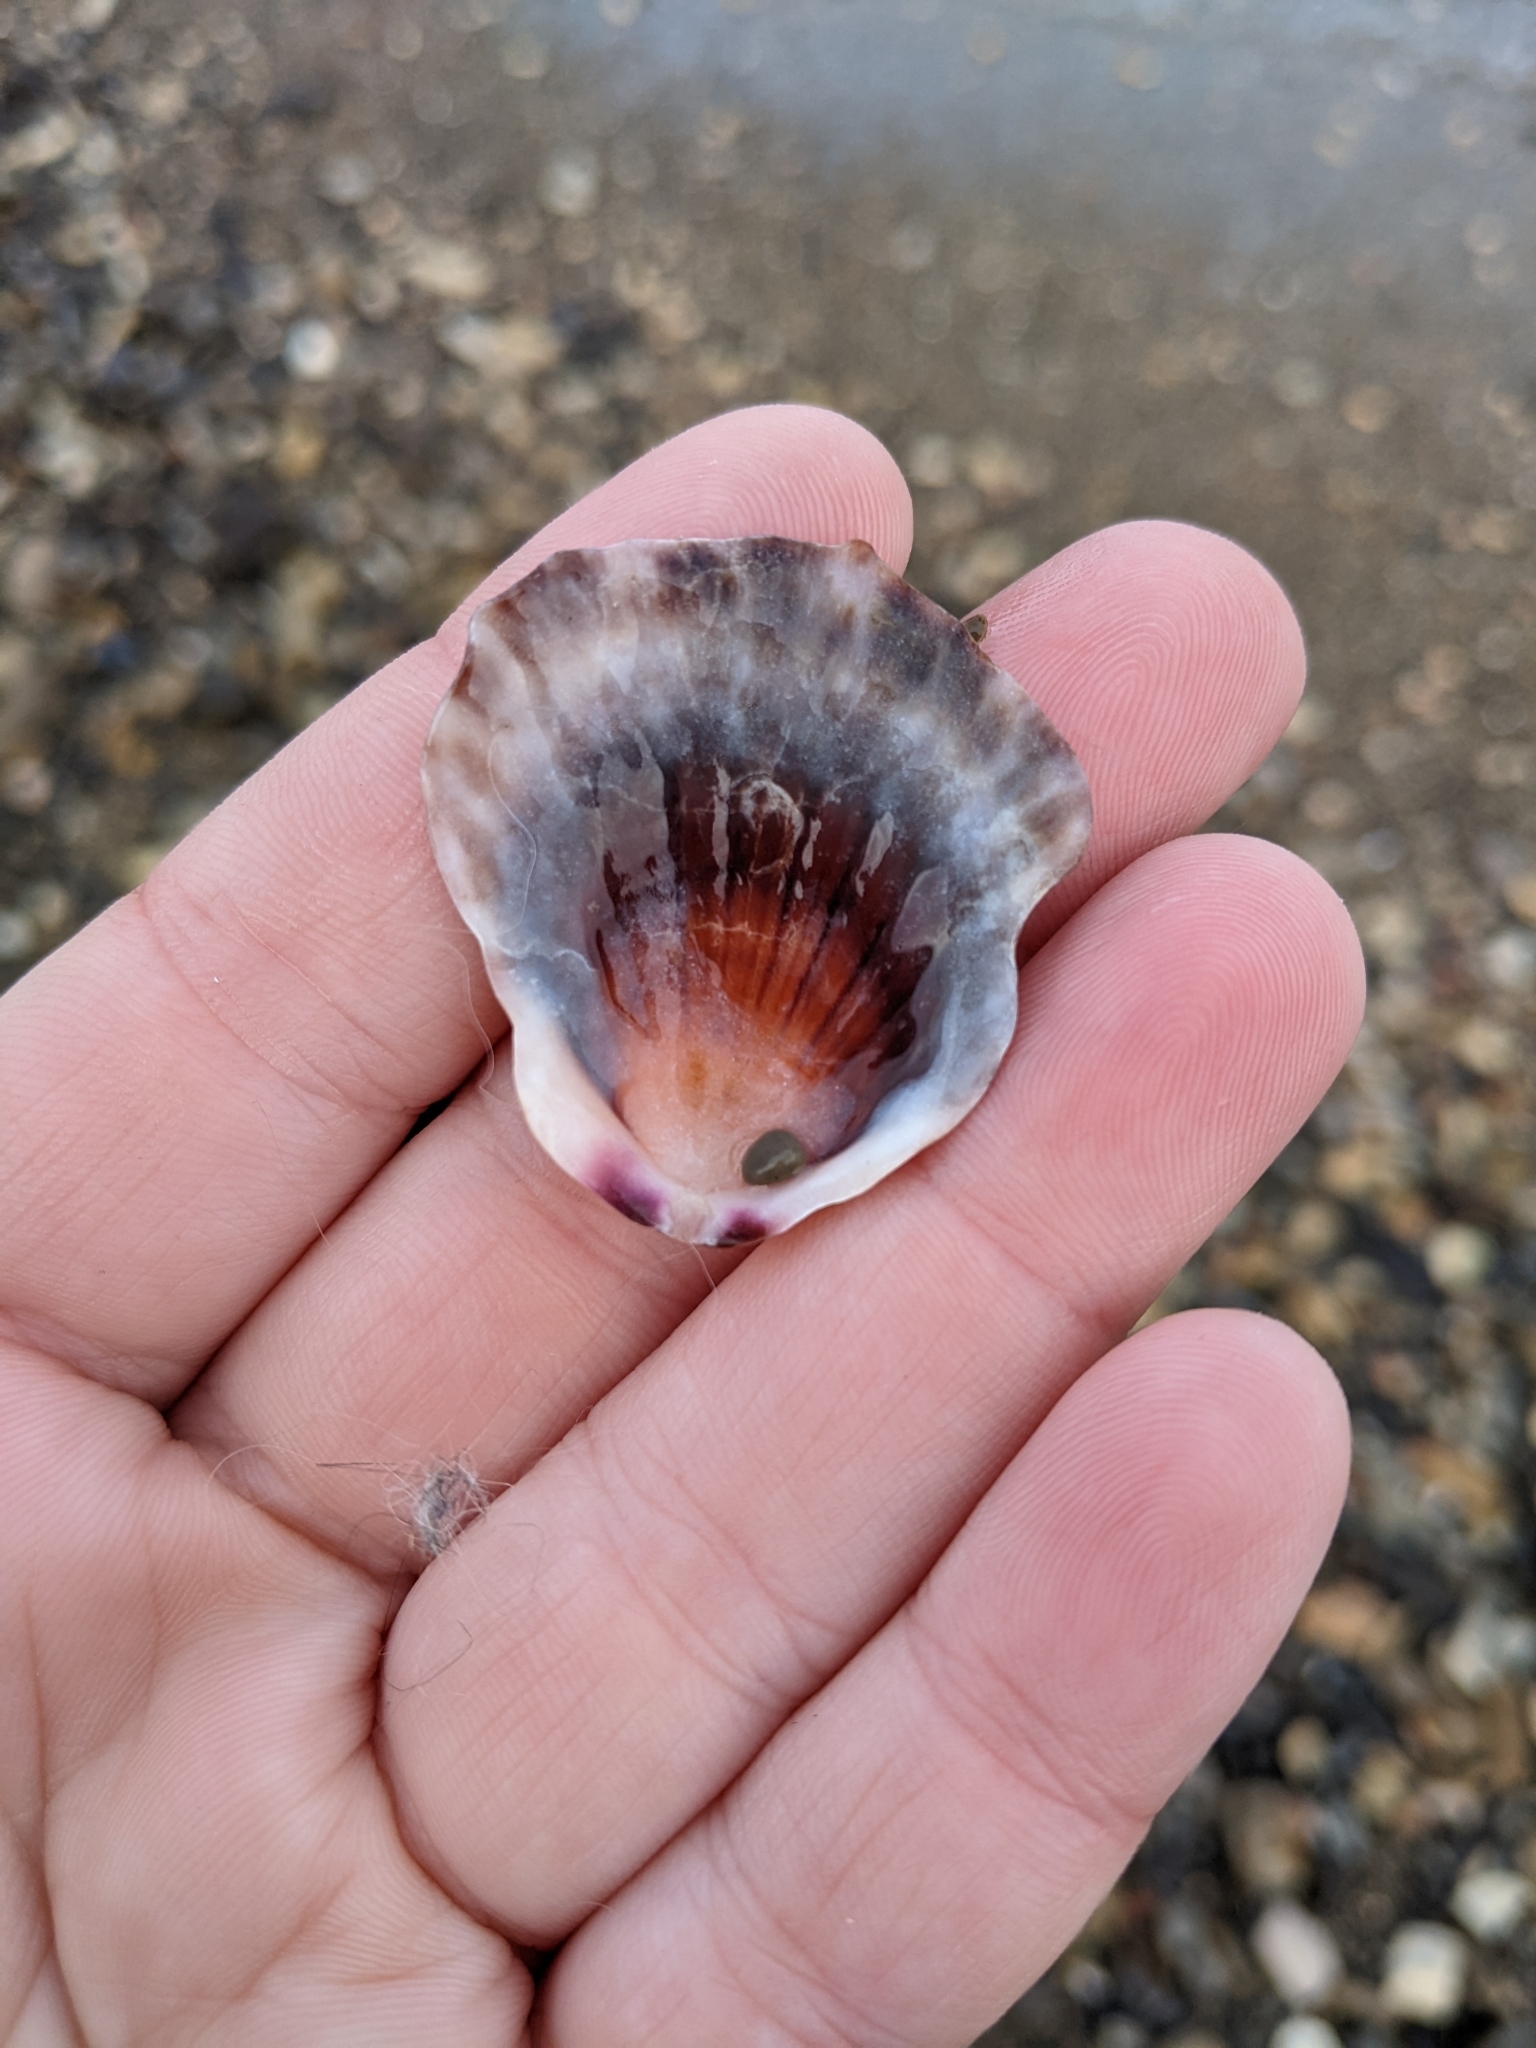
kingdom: Animalia
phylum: Mollusca
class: Bivalvia
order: Pectinida
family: Pectinidae
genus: Crassadoma
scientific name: Crassadoma gigantea
